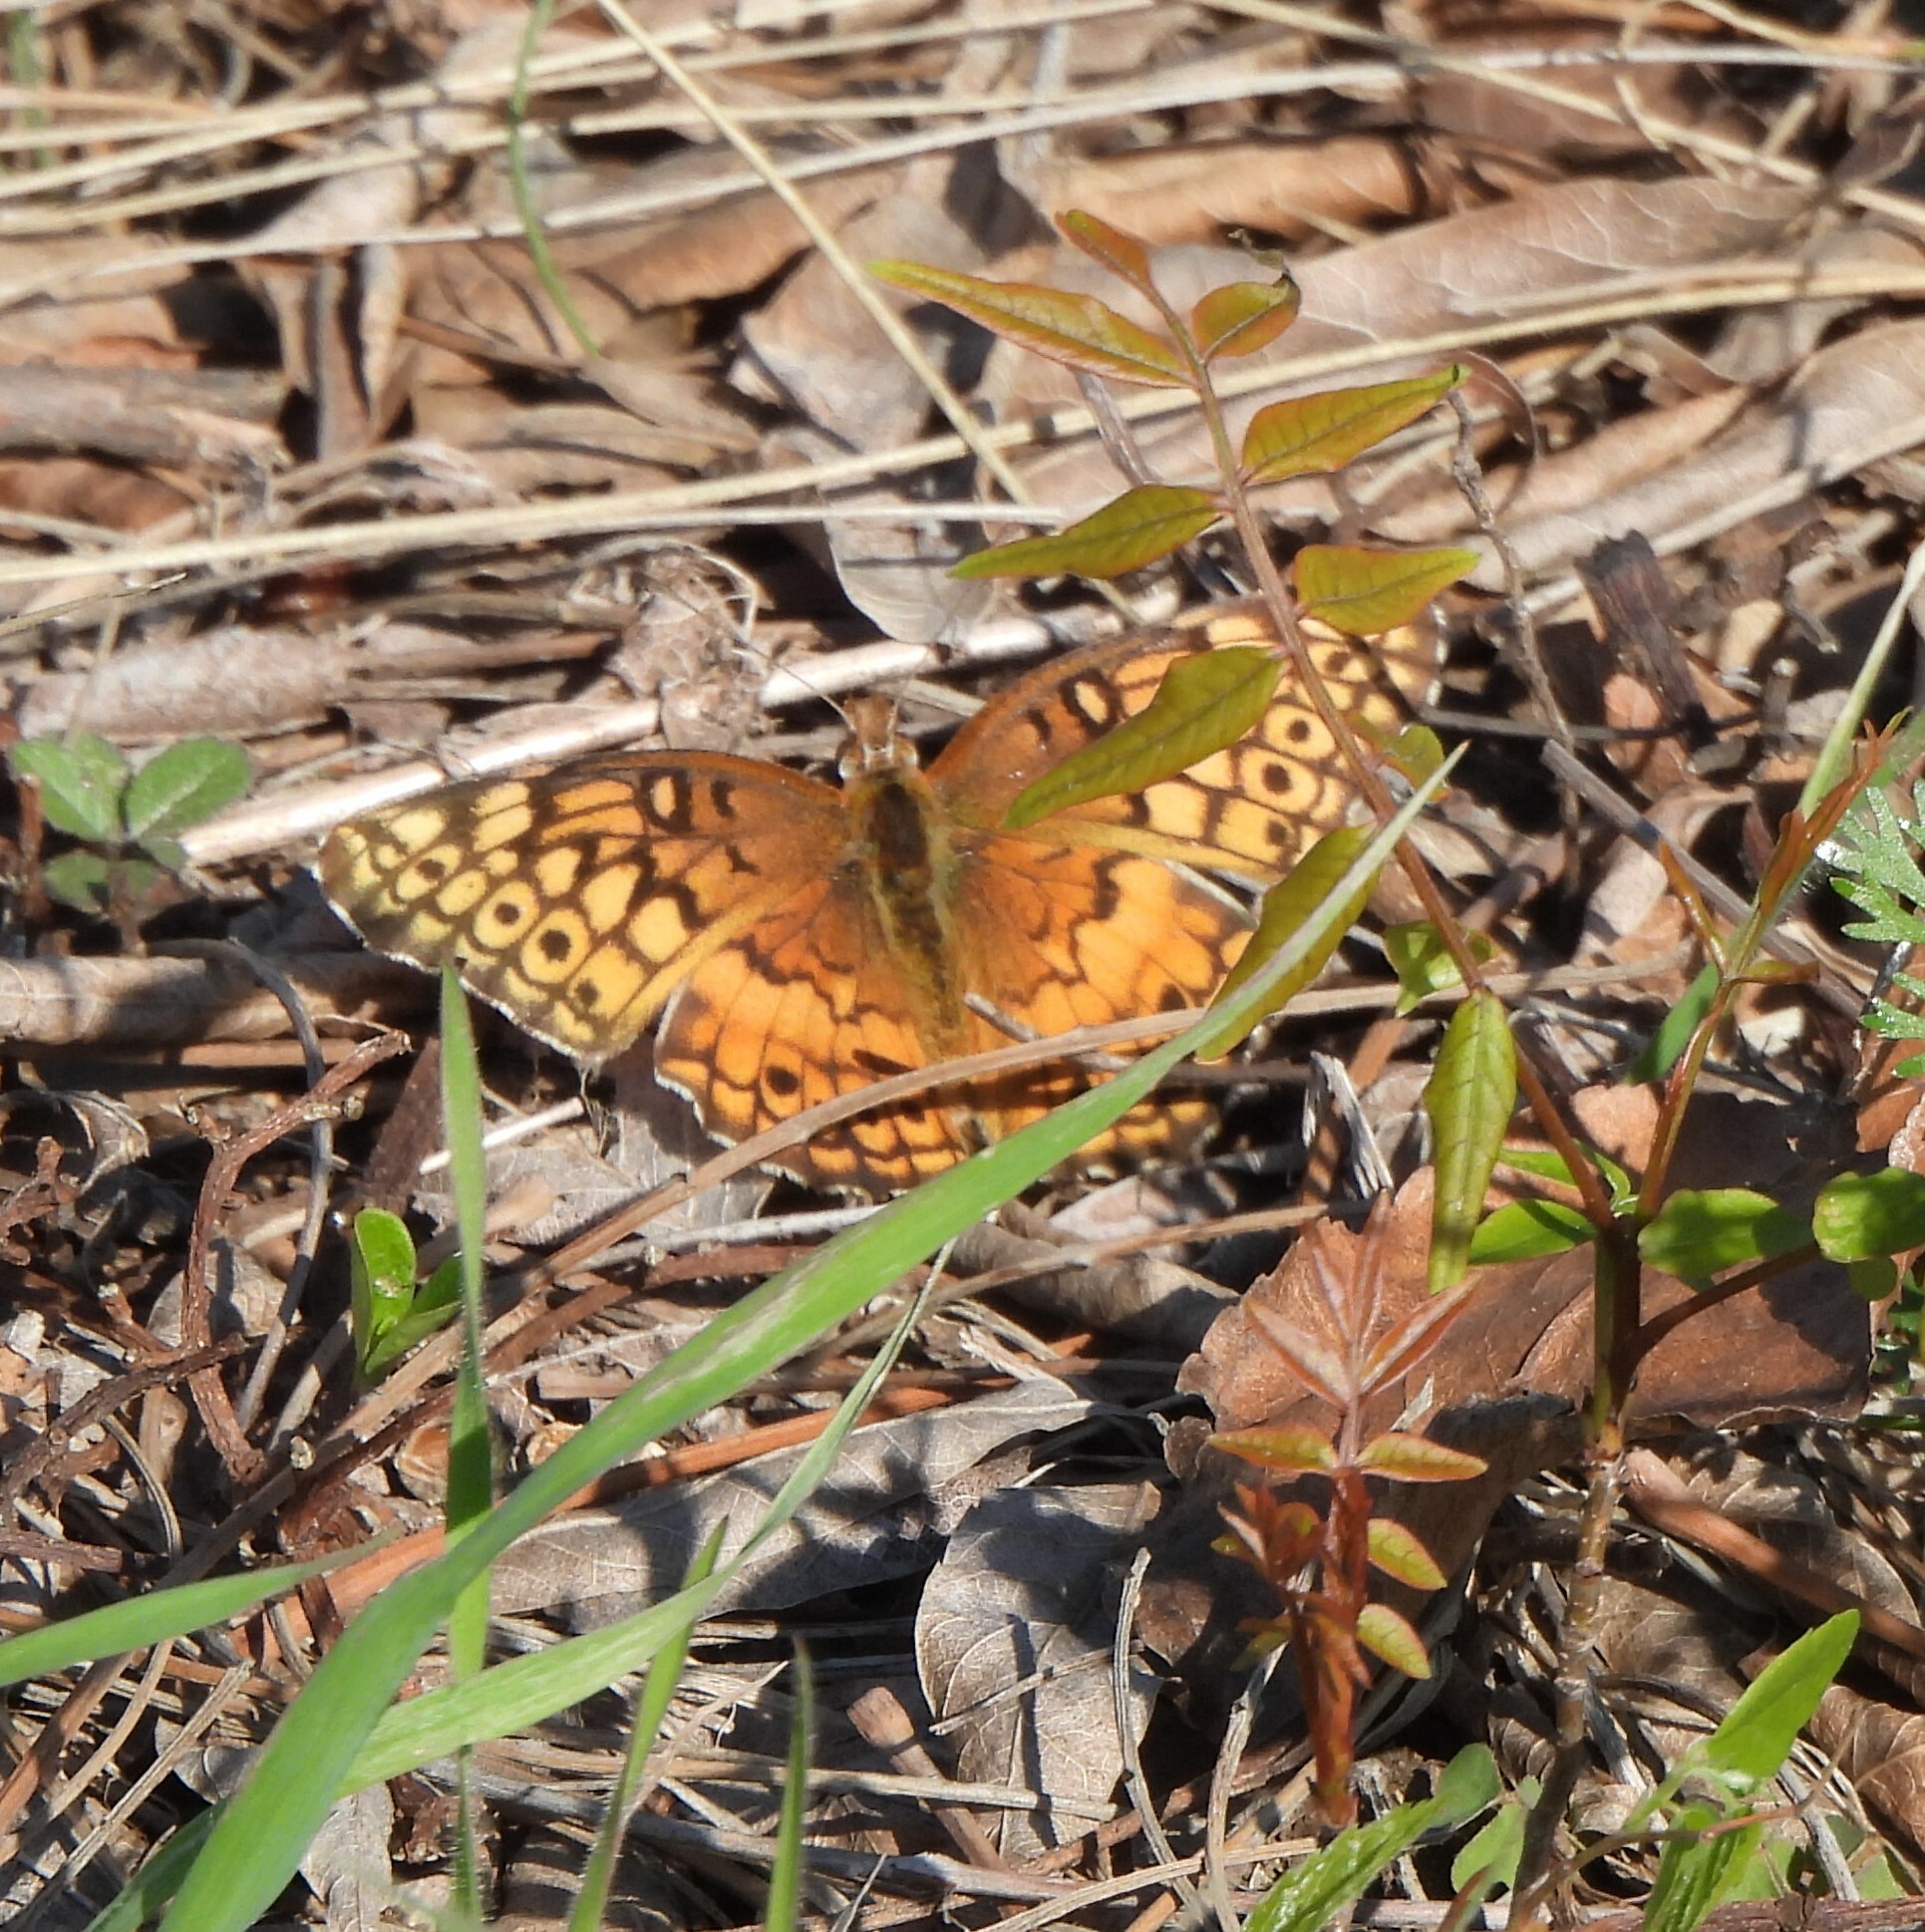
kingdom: Animalia
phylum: Arthropoda
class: Insecta
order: Lepidoptera
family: Nymphalidae
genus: Euptoieta
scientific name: Euptoieta claudia
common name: Variegated fritillary
